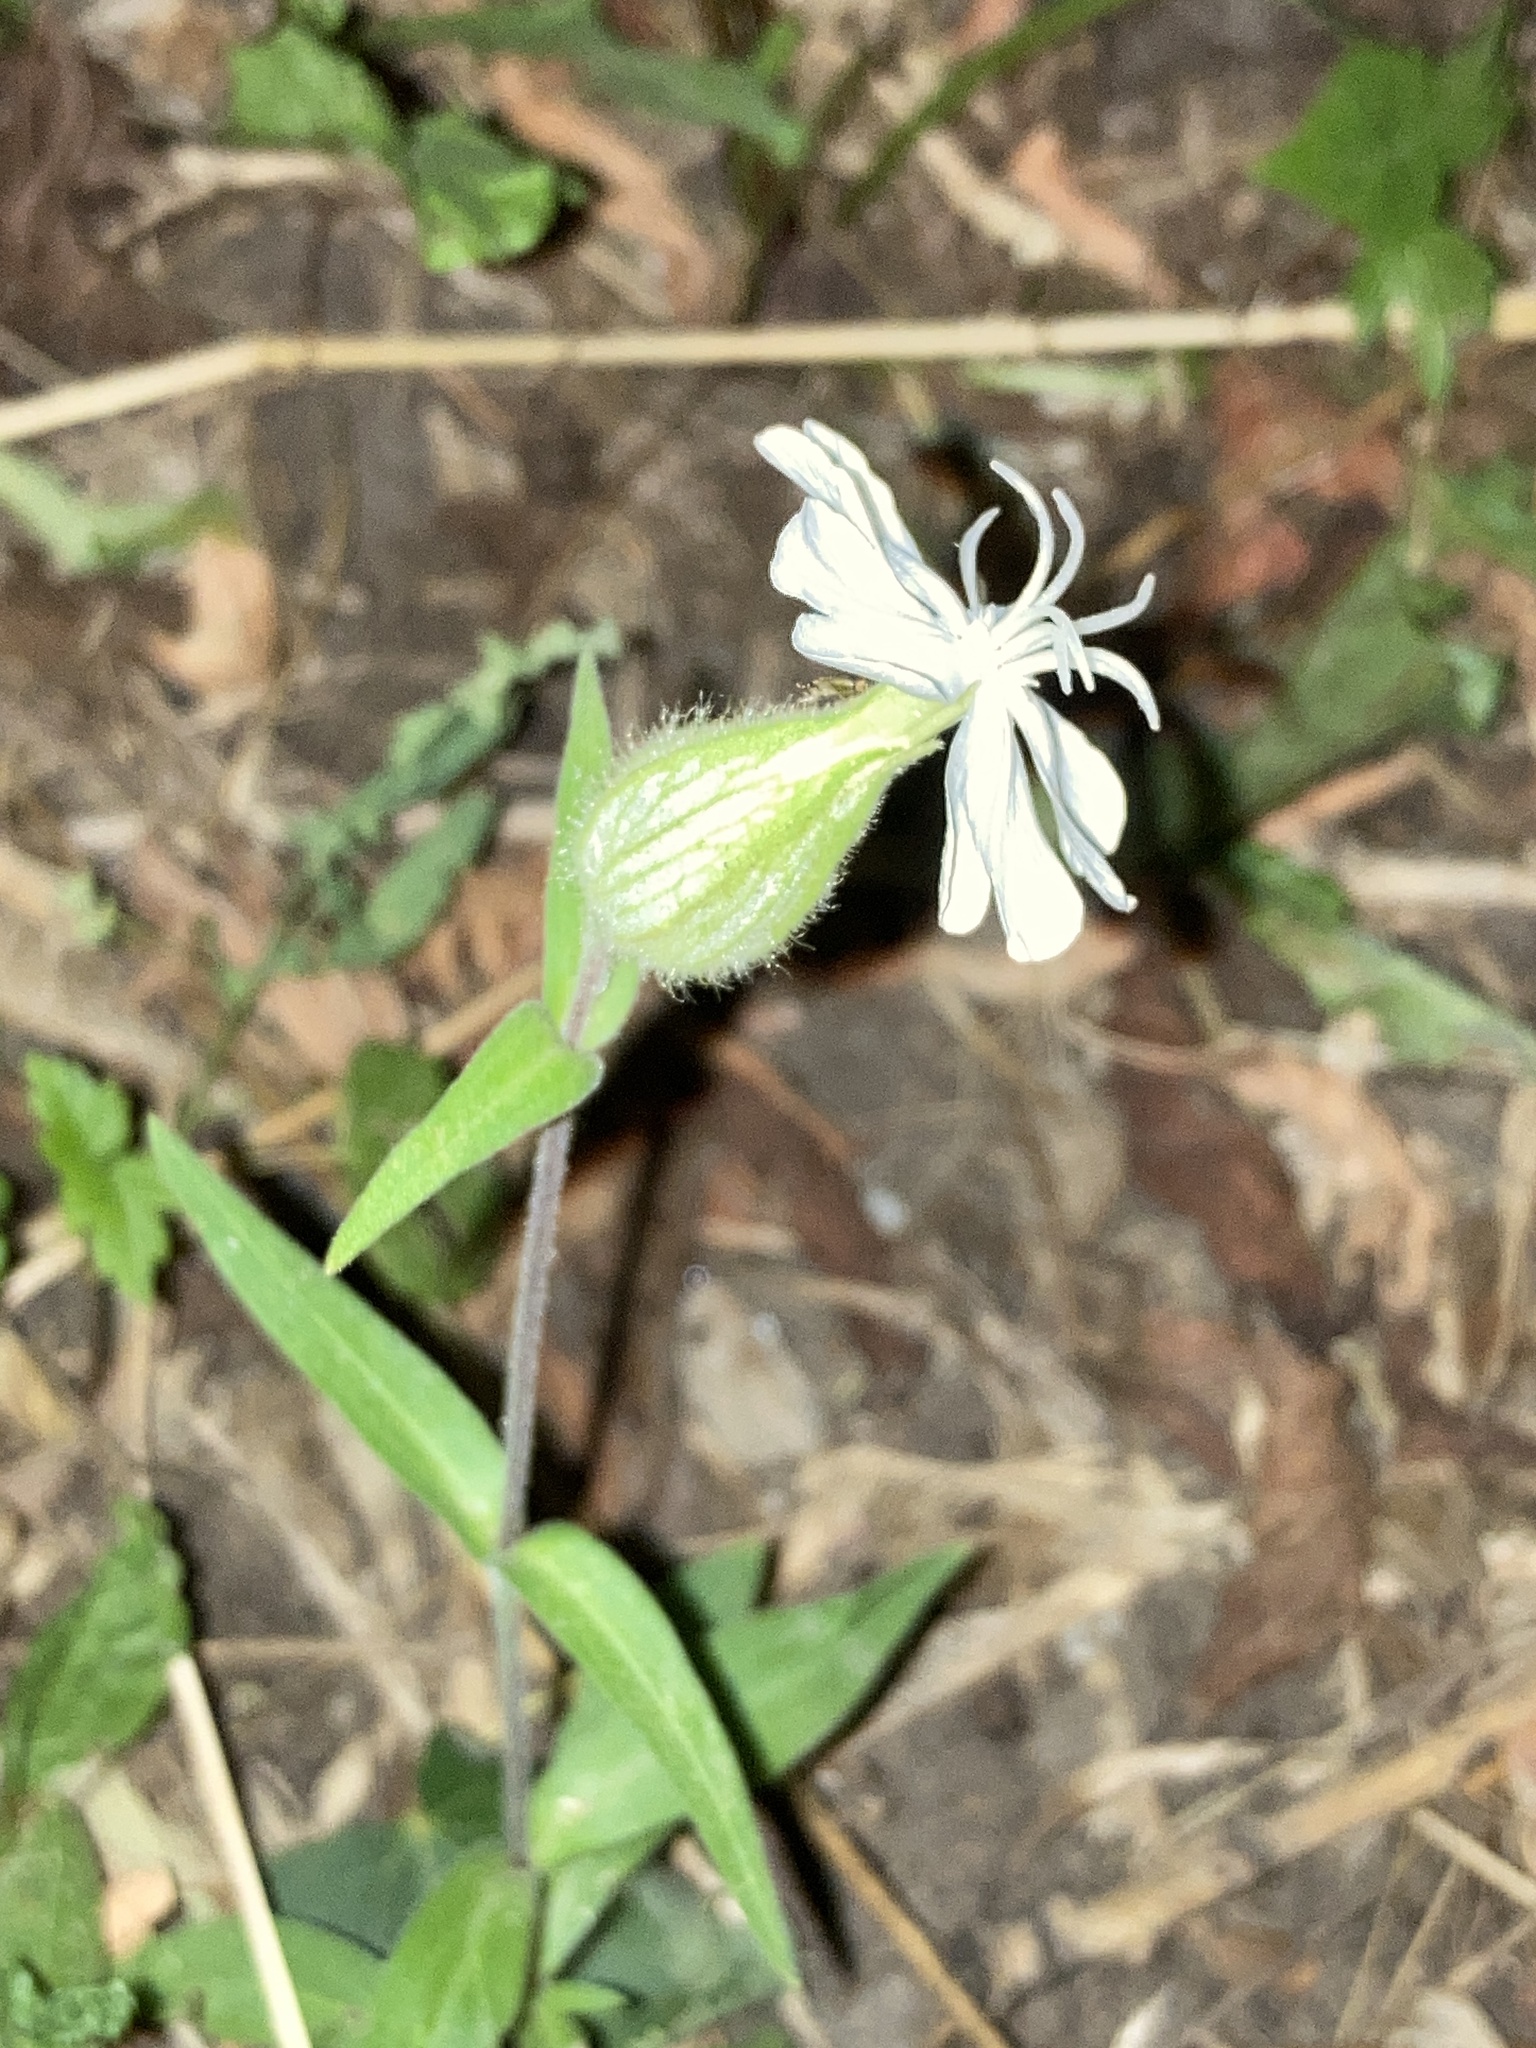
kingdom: Plantae
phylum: Tracheophyta
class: Magnoliopsida
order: Caryophyllales
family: Caryophyllaceae
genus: Silene
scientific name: Silene latifolia
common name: White campion
